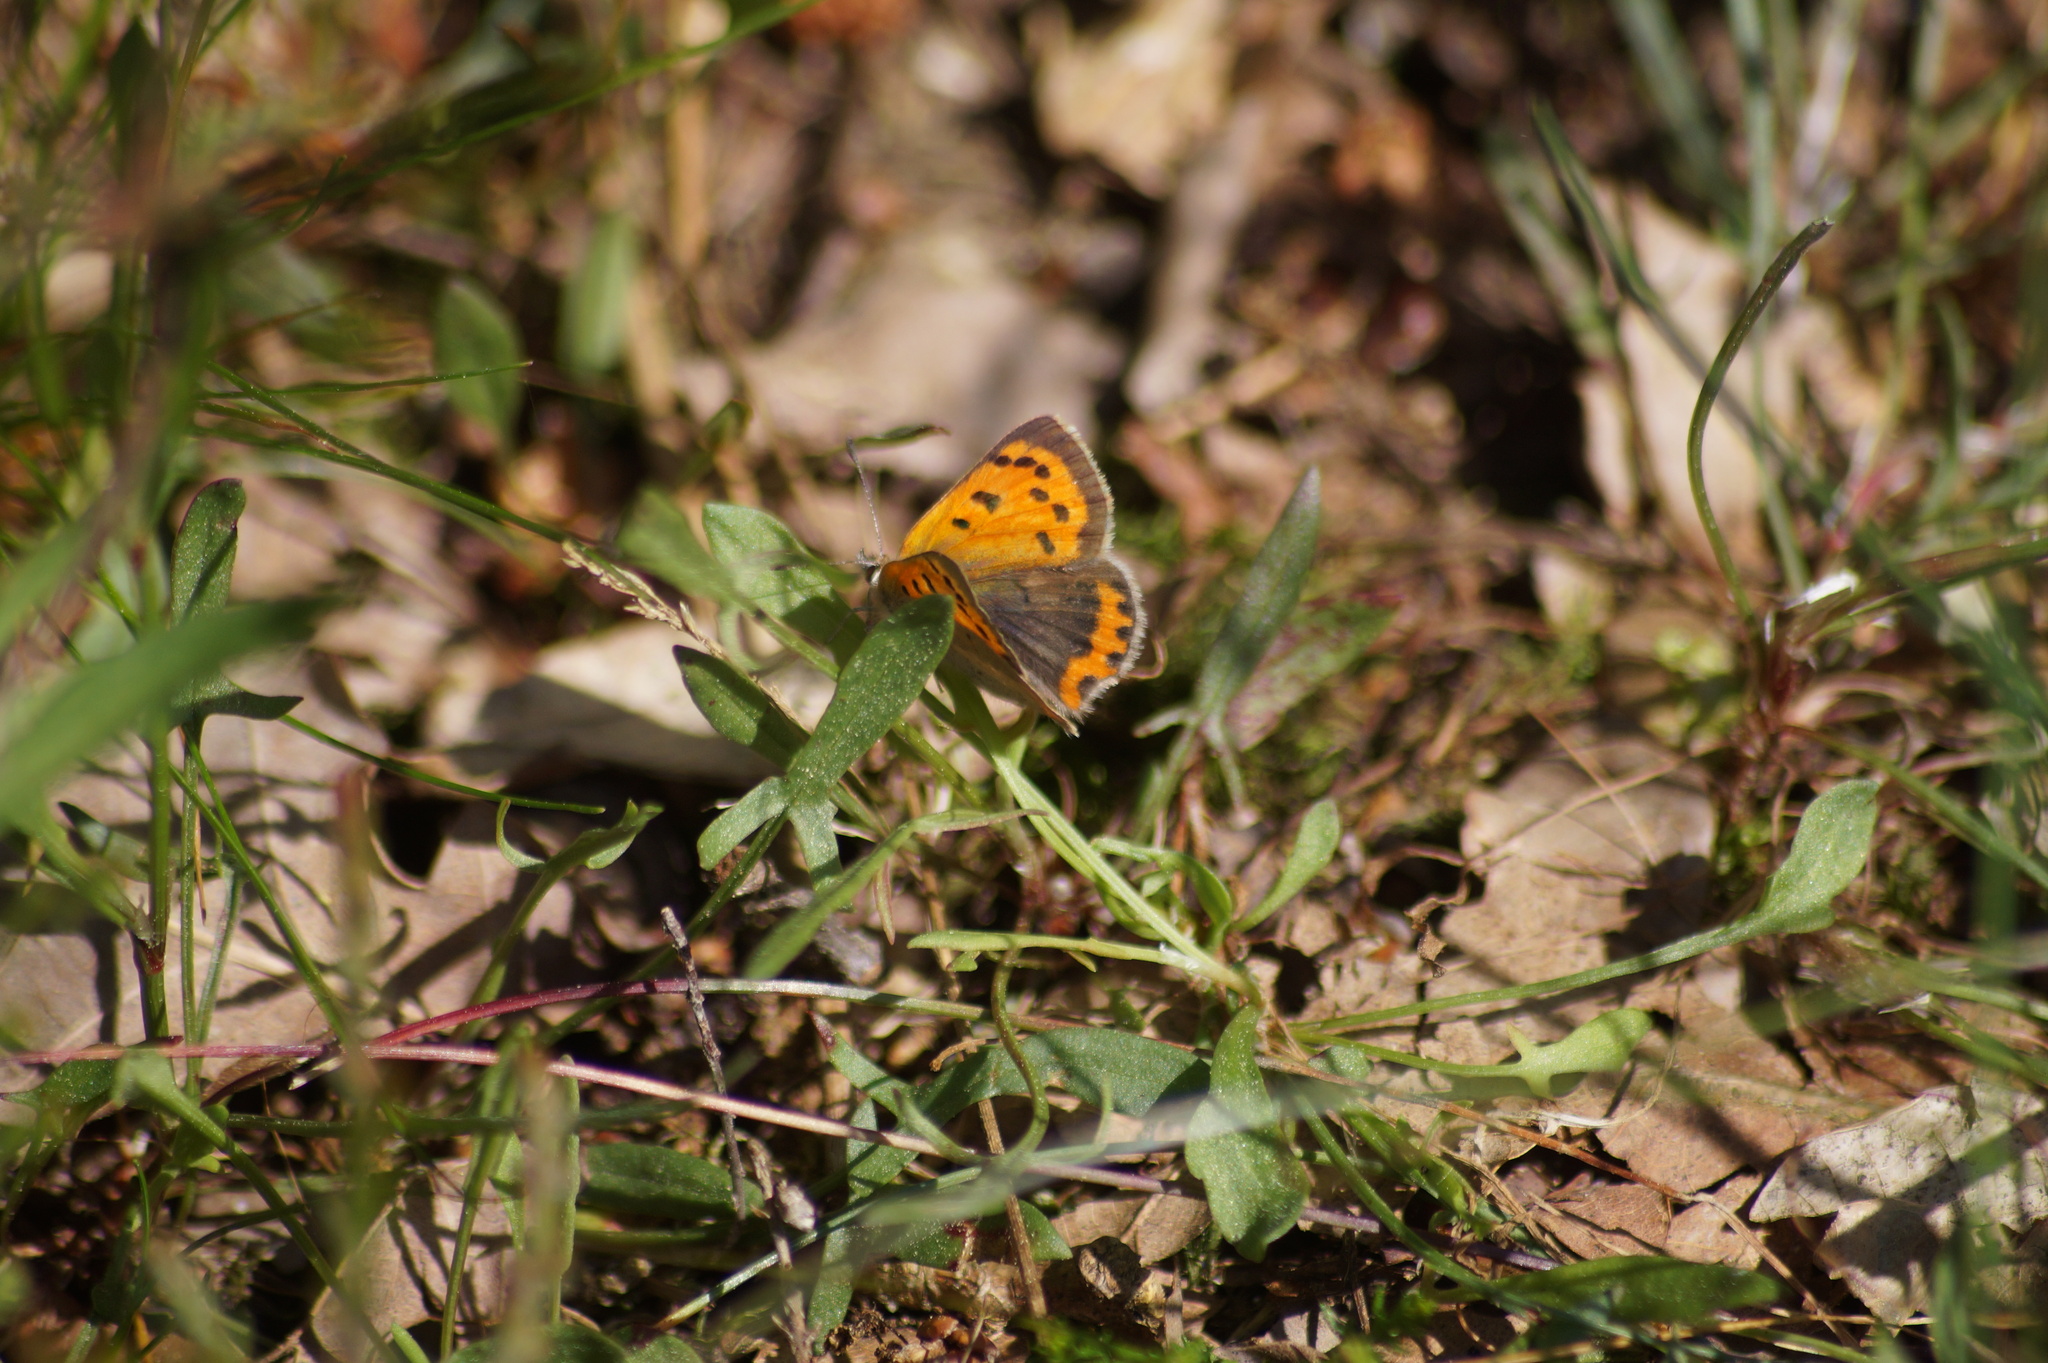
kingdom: Animalia
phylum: Arthropoda
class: Insecta
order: Lepidoptera
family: Lycaenidae
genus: Lycaena
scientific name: Lycaena phlaeas
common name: Small copper
